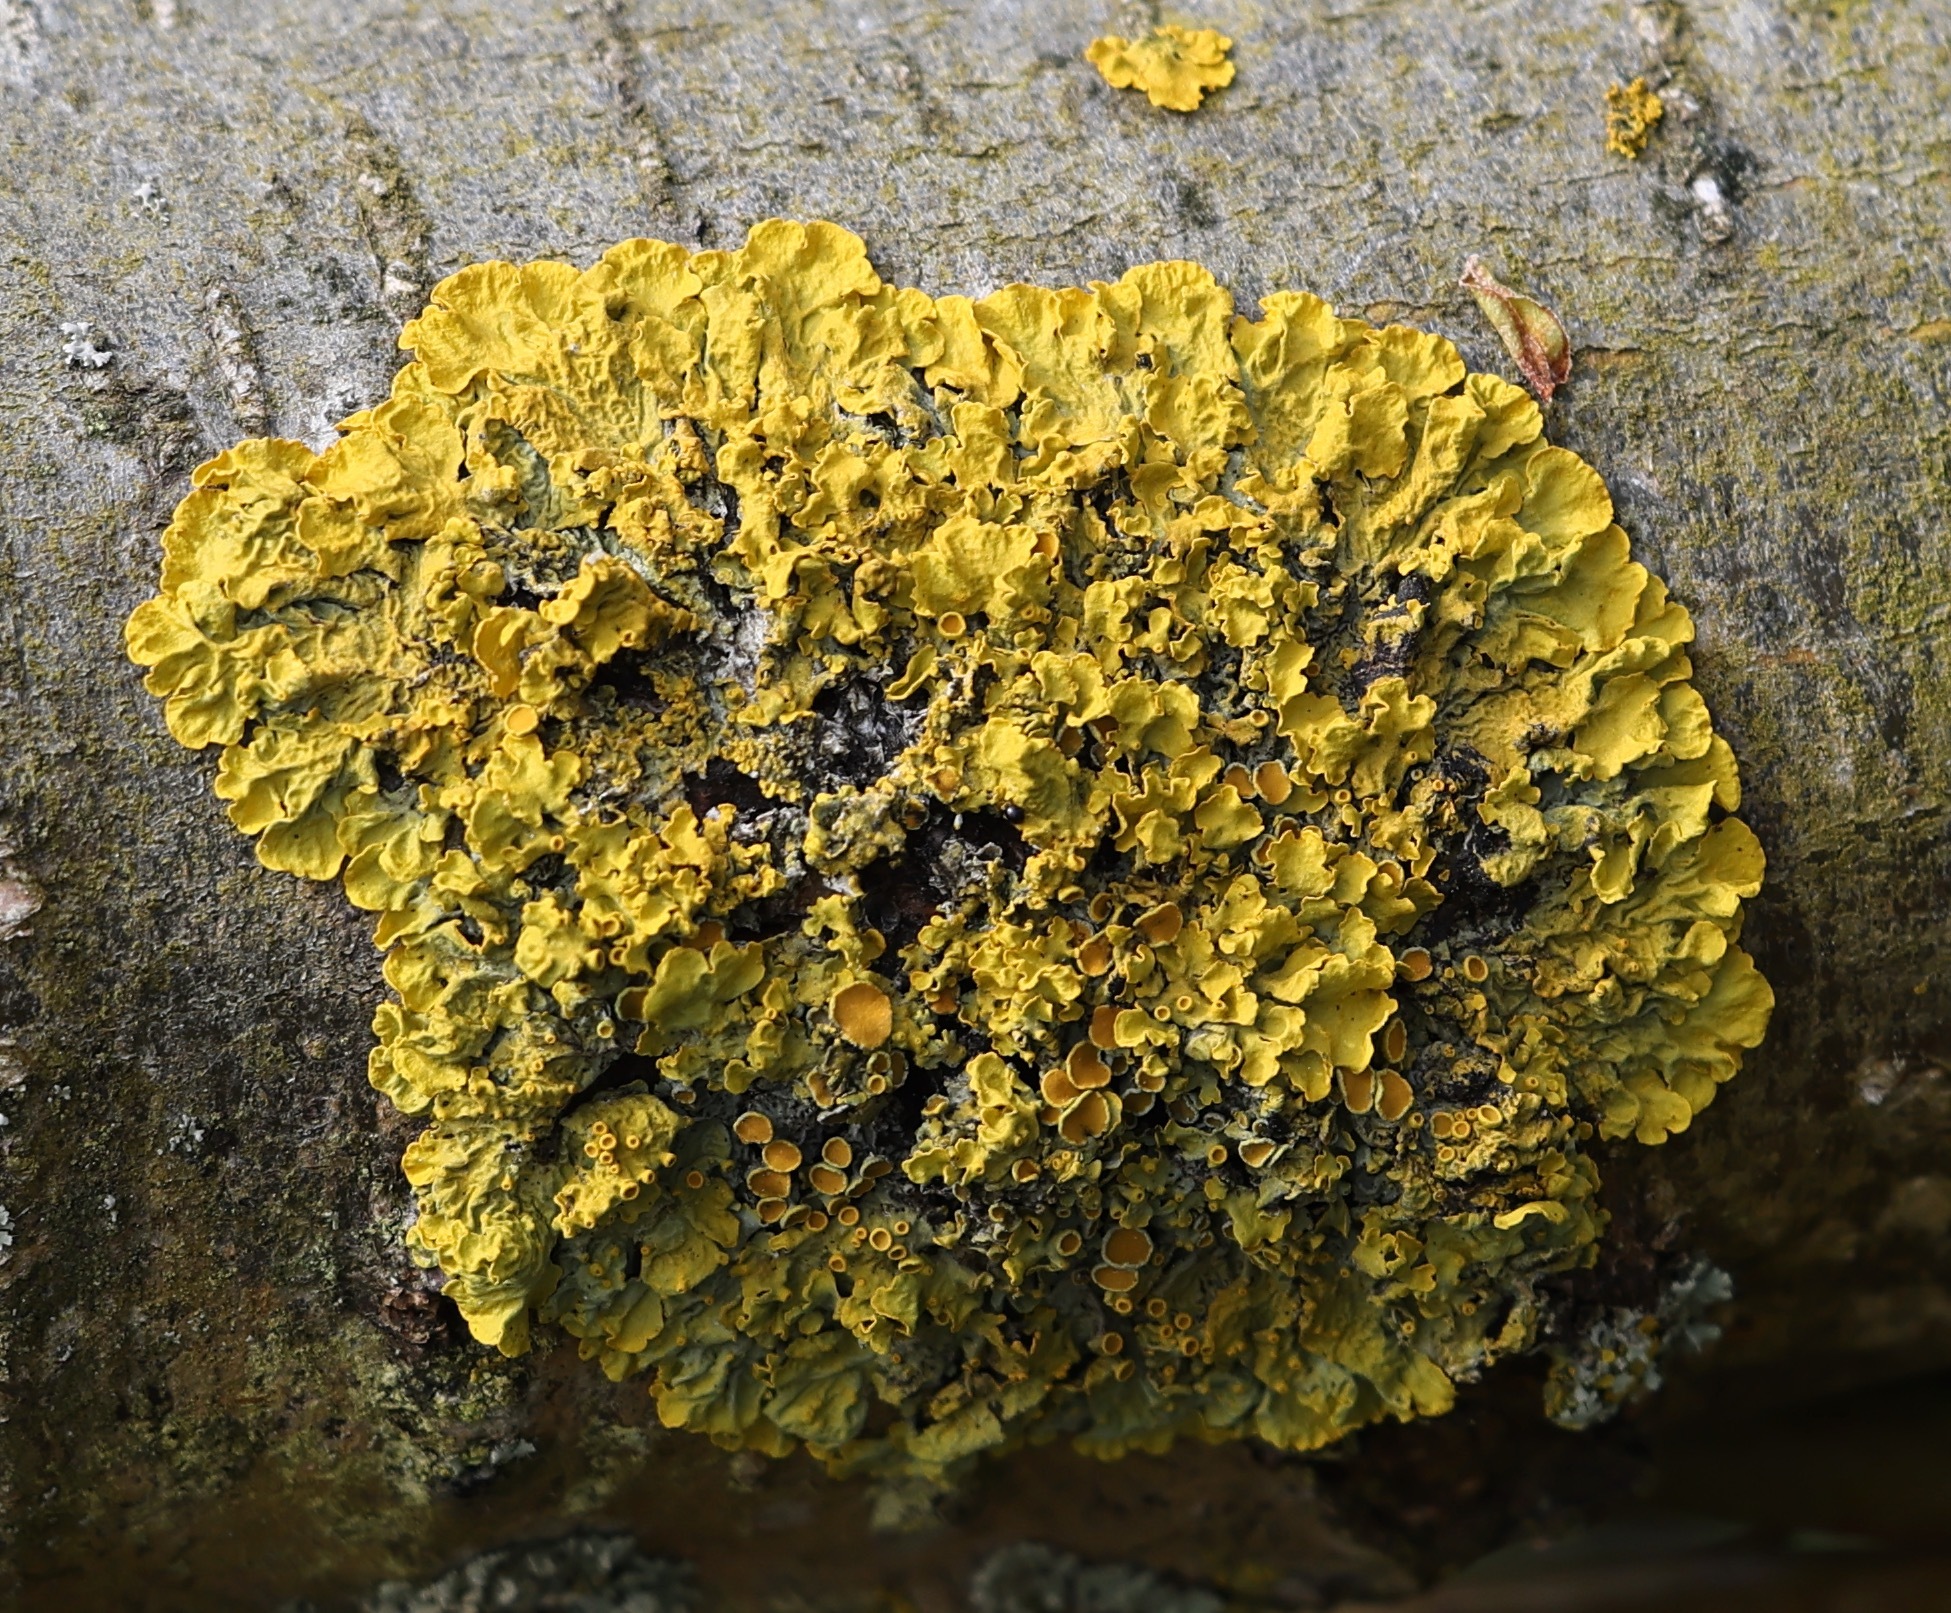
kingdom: Fungi
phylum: Ascomycota
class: Lecanoromycetes
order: Teloschistales
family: Teloschistaceae
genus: Xanthoria
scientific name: Xanthoria parietina
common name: Common orange lichen
